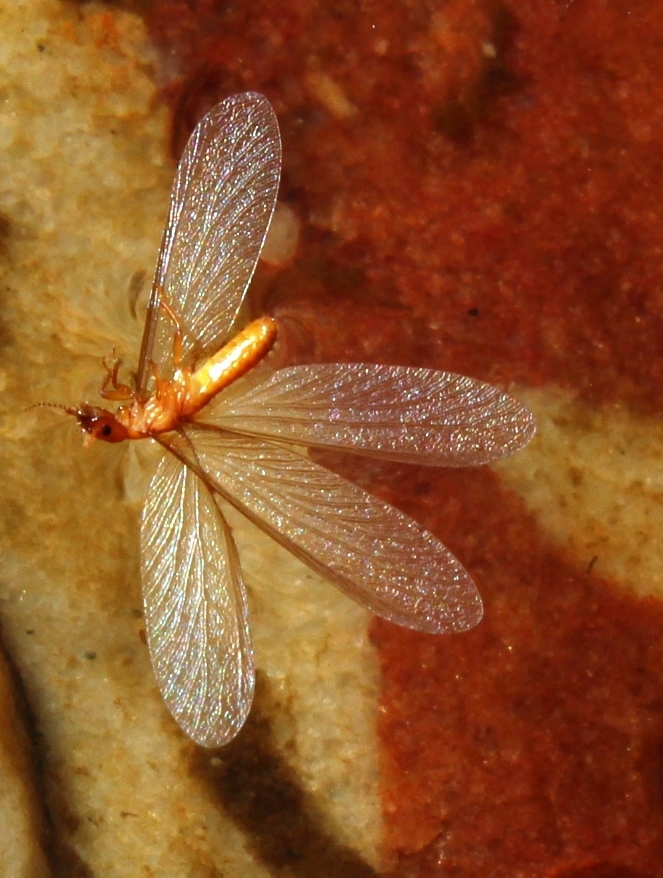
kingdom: Animalia
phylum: Arthropoda
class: Insecta
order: Blattodea
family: Stolotermitidae
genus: Porotermes
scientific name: Porotermes planiceps
